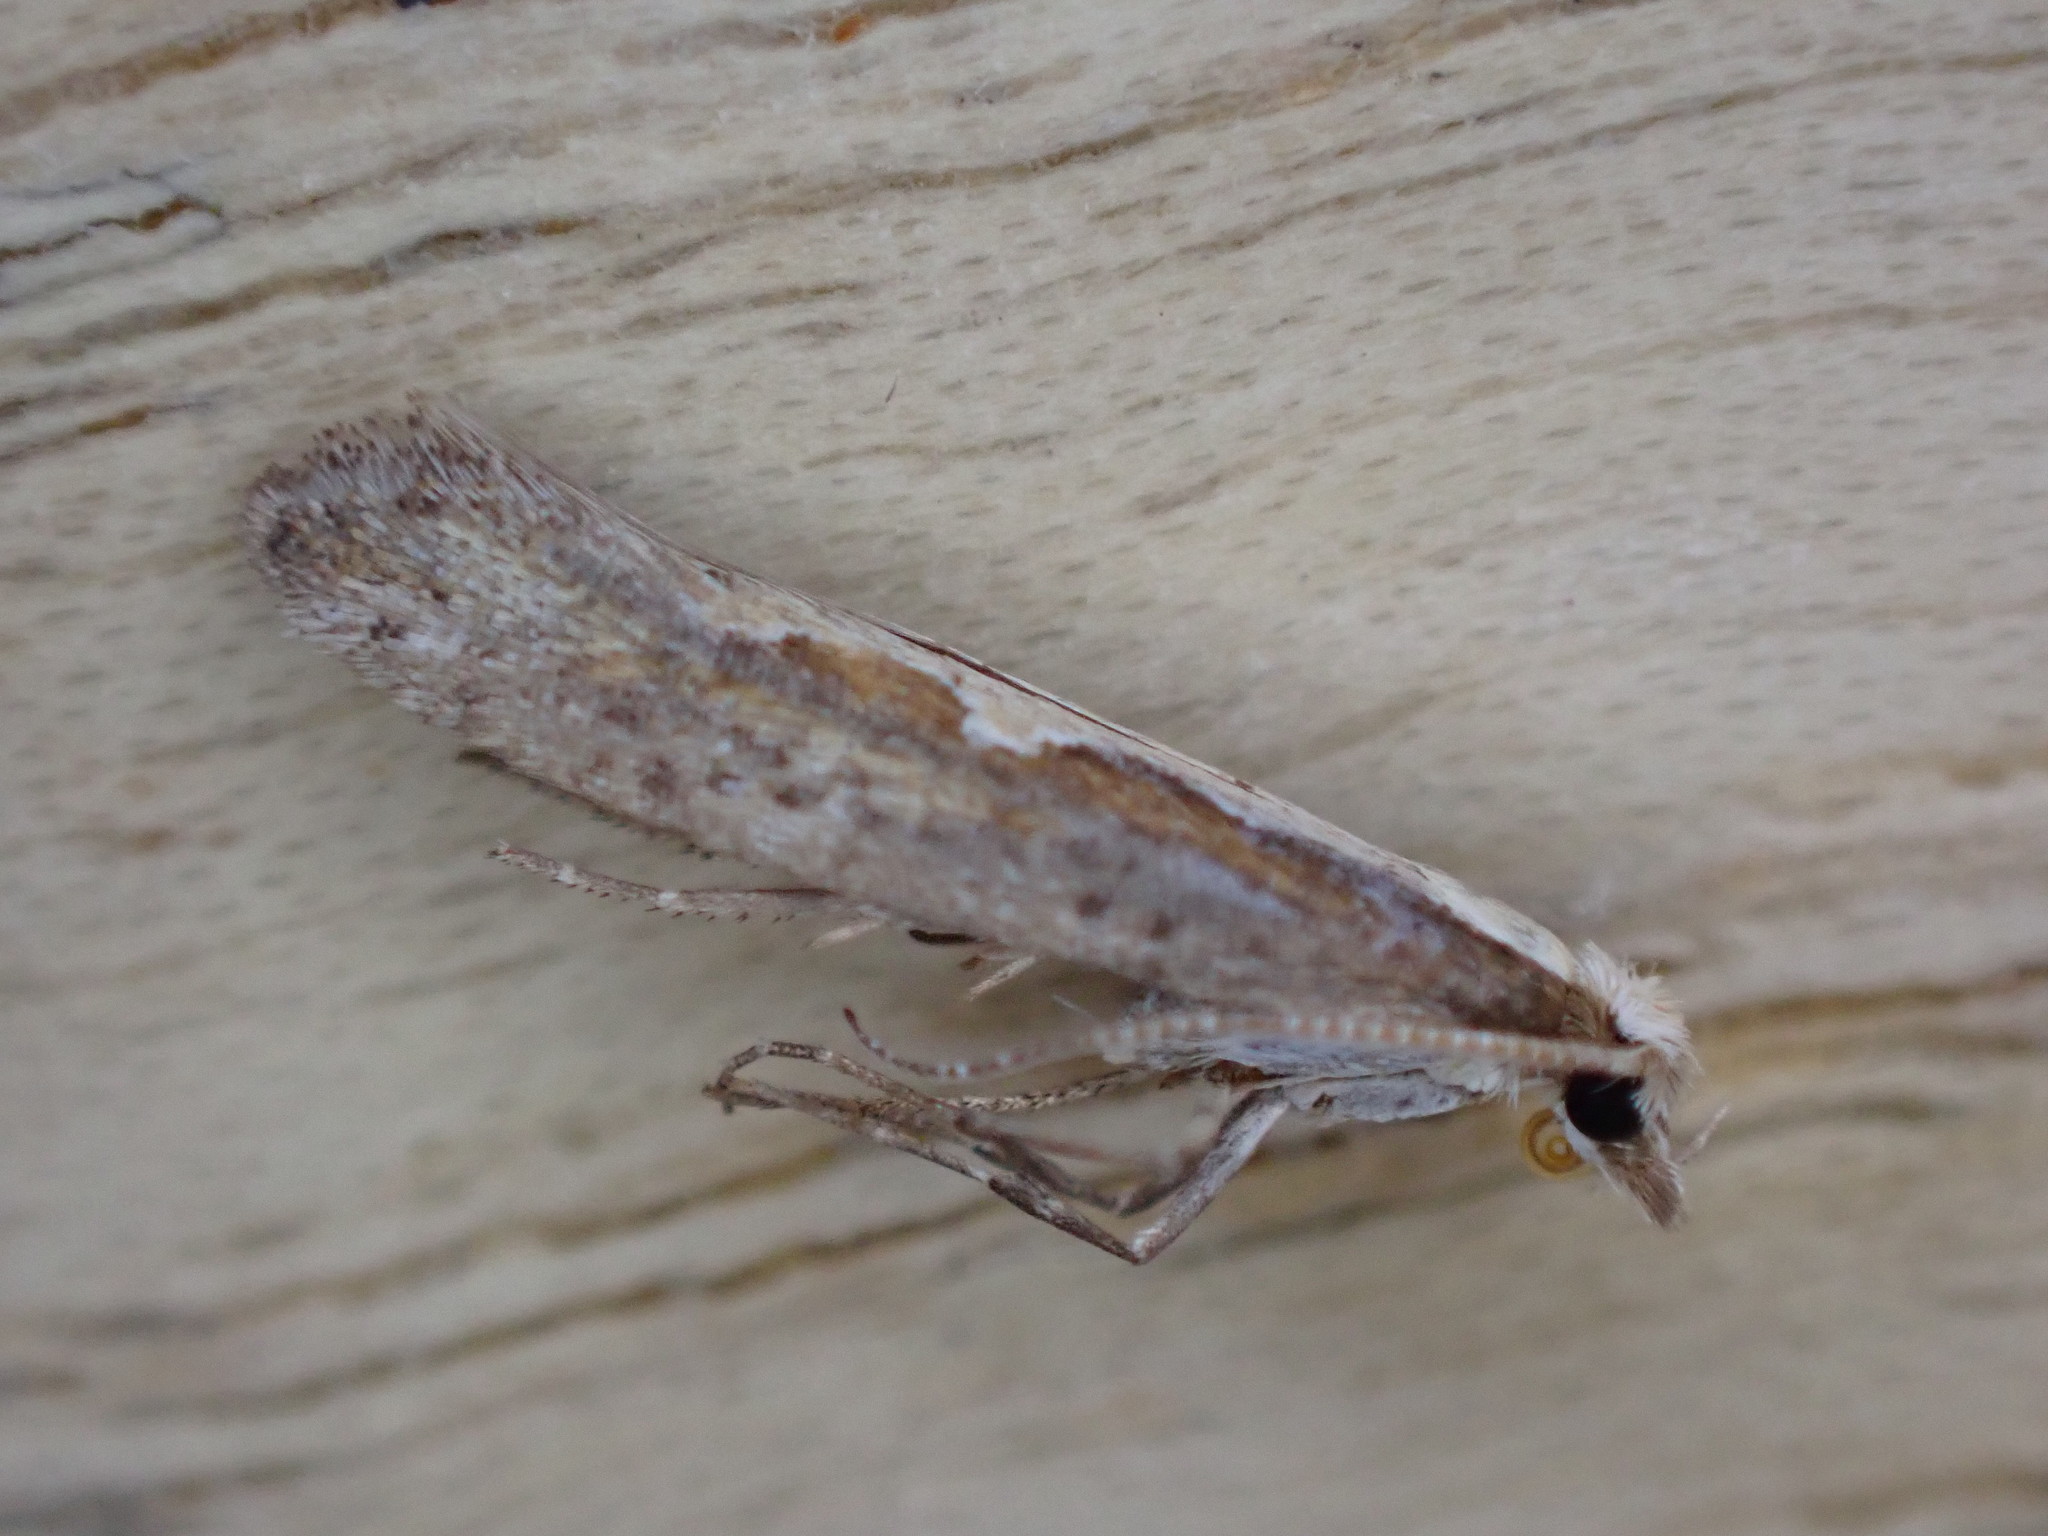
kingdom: Animalia
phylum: Arthropoda
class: Insecta
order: Lepidoptera
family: Plutellidae
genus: Plutella
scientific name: Plutella xylostella
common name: Diamond-back moth
